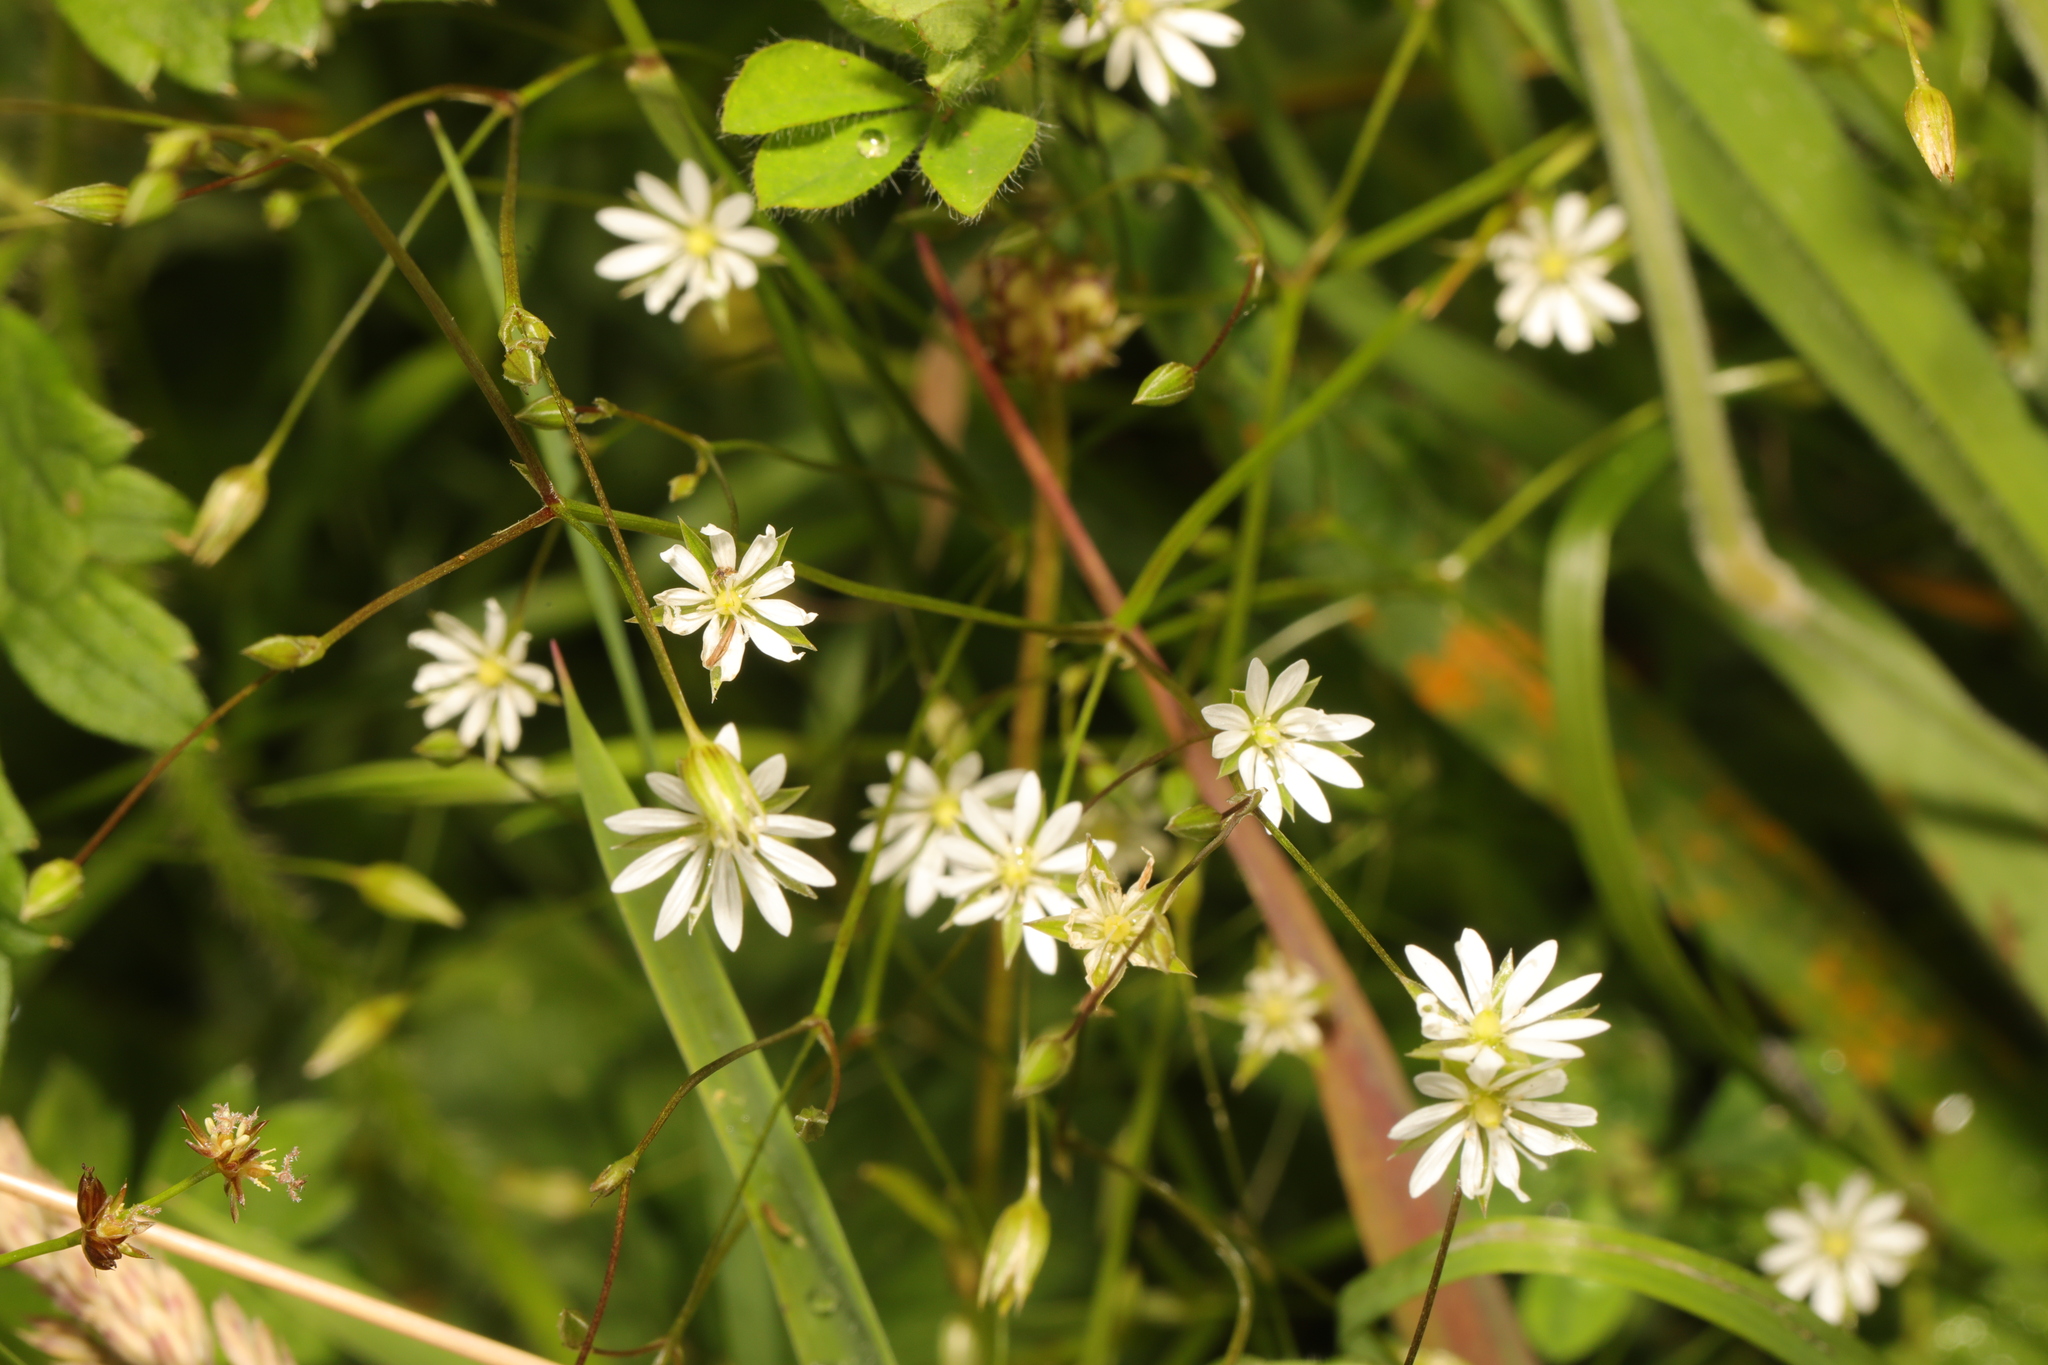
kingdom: Plantae
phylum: Tracheophyta
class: Magnoliopsida
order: Caryophyllales
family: Caryophyllaceae
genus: Stellaria
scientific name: Stellaria graminea
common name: Grass-like starwort
